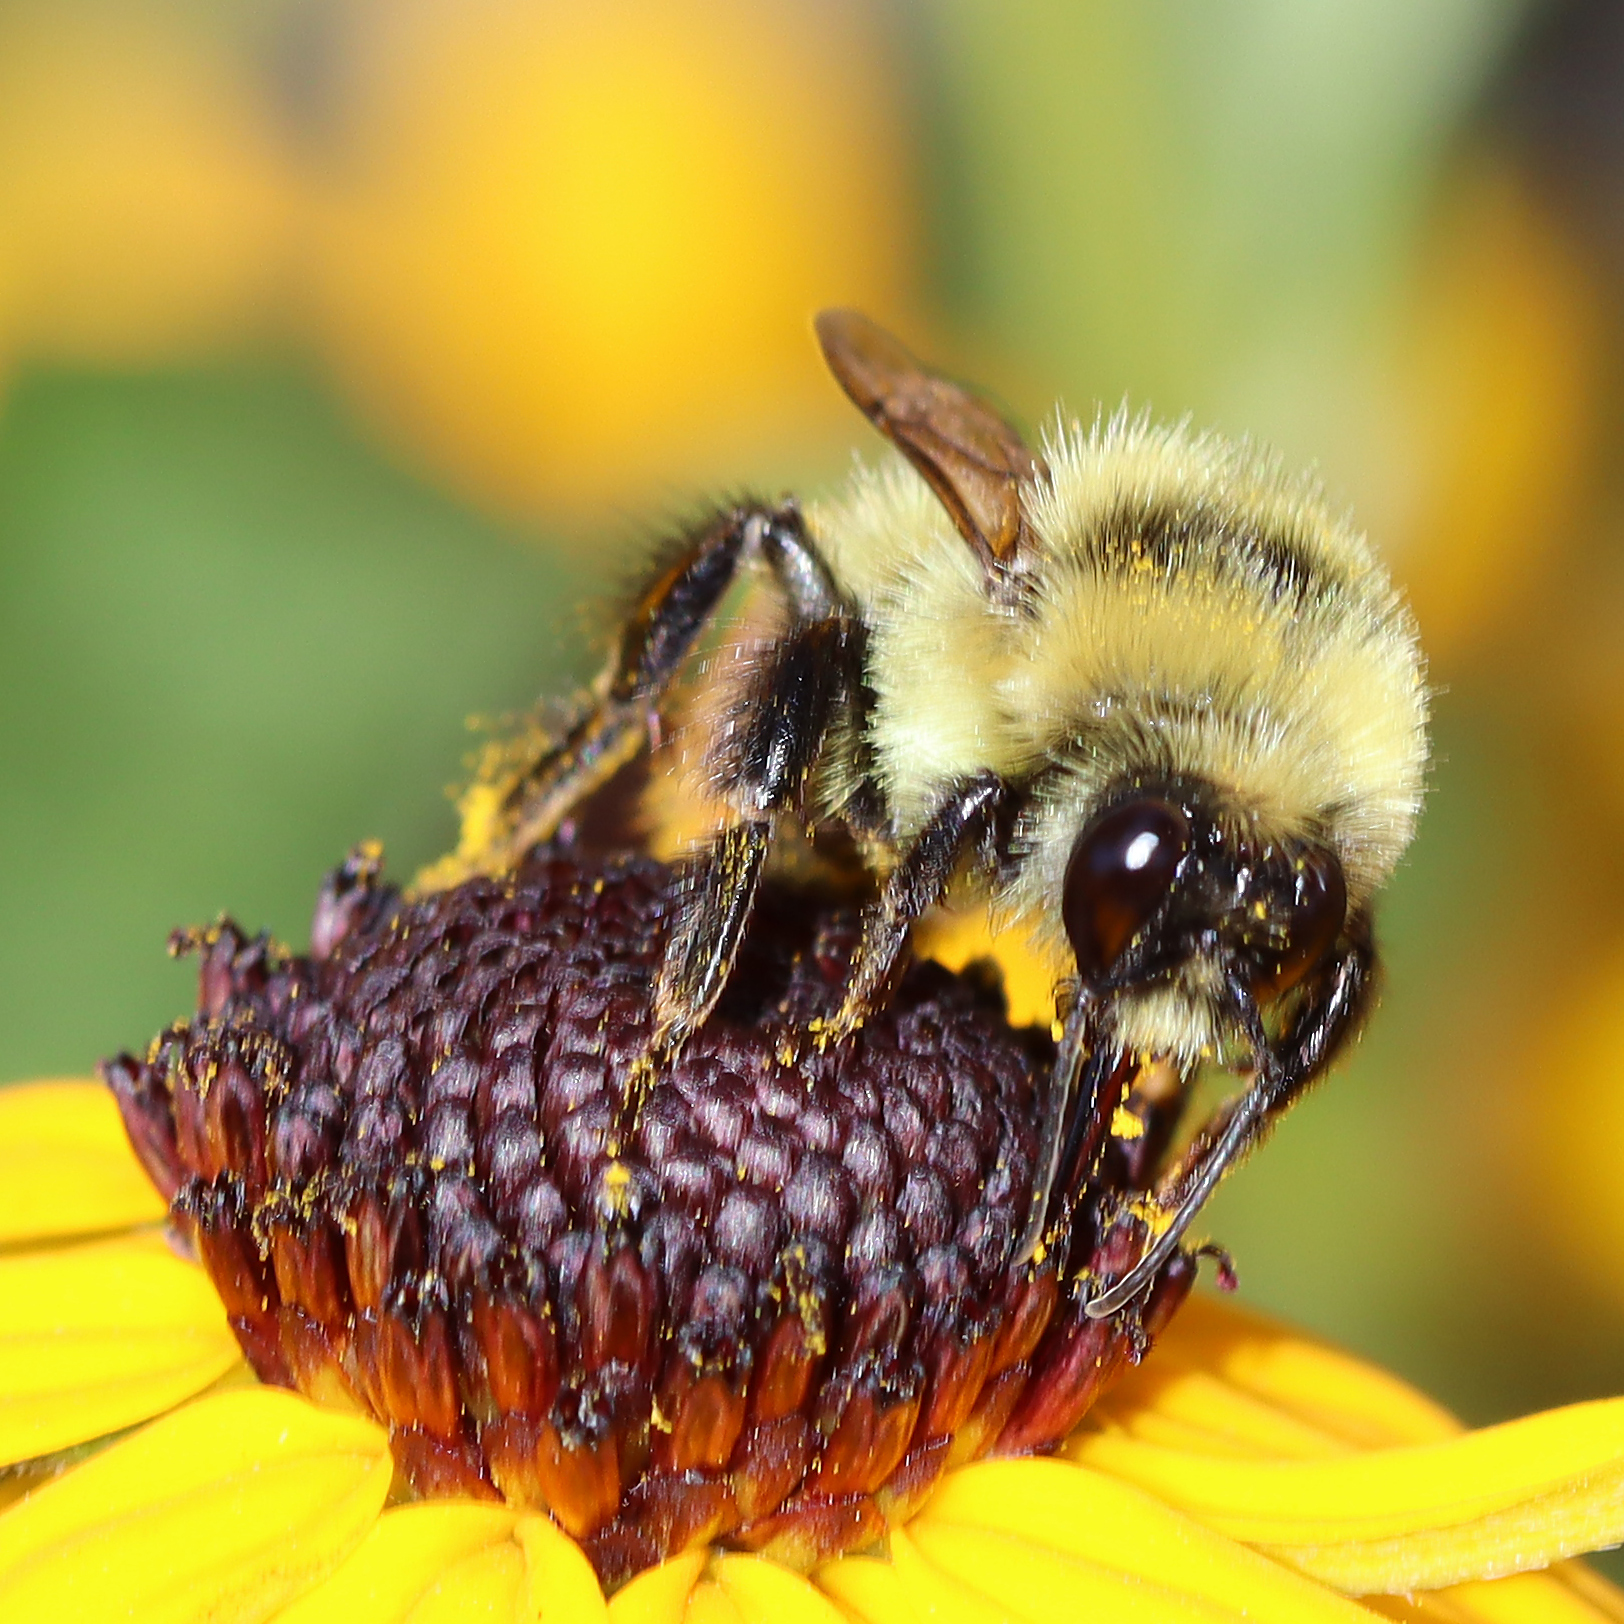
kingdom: Animalia
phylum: Arthropoda
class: Insecta
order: Hymenoptera
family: Apidae
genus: Bombus
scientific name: Bombus rufocinctus
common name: Red-belted bumble bee
